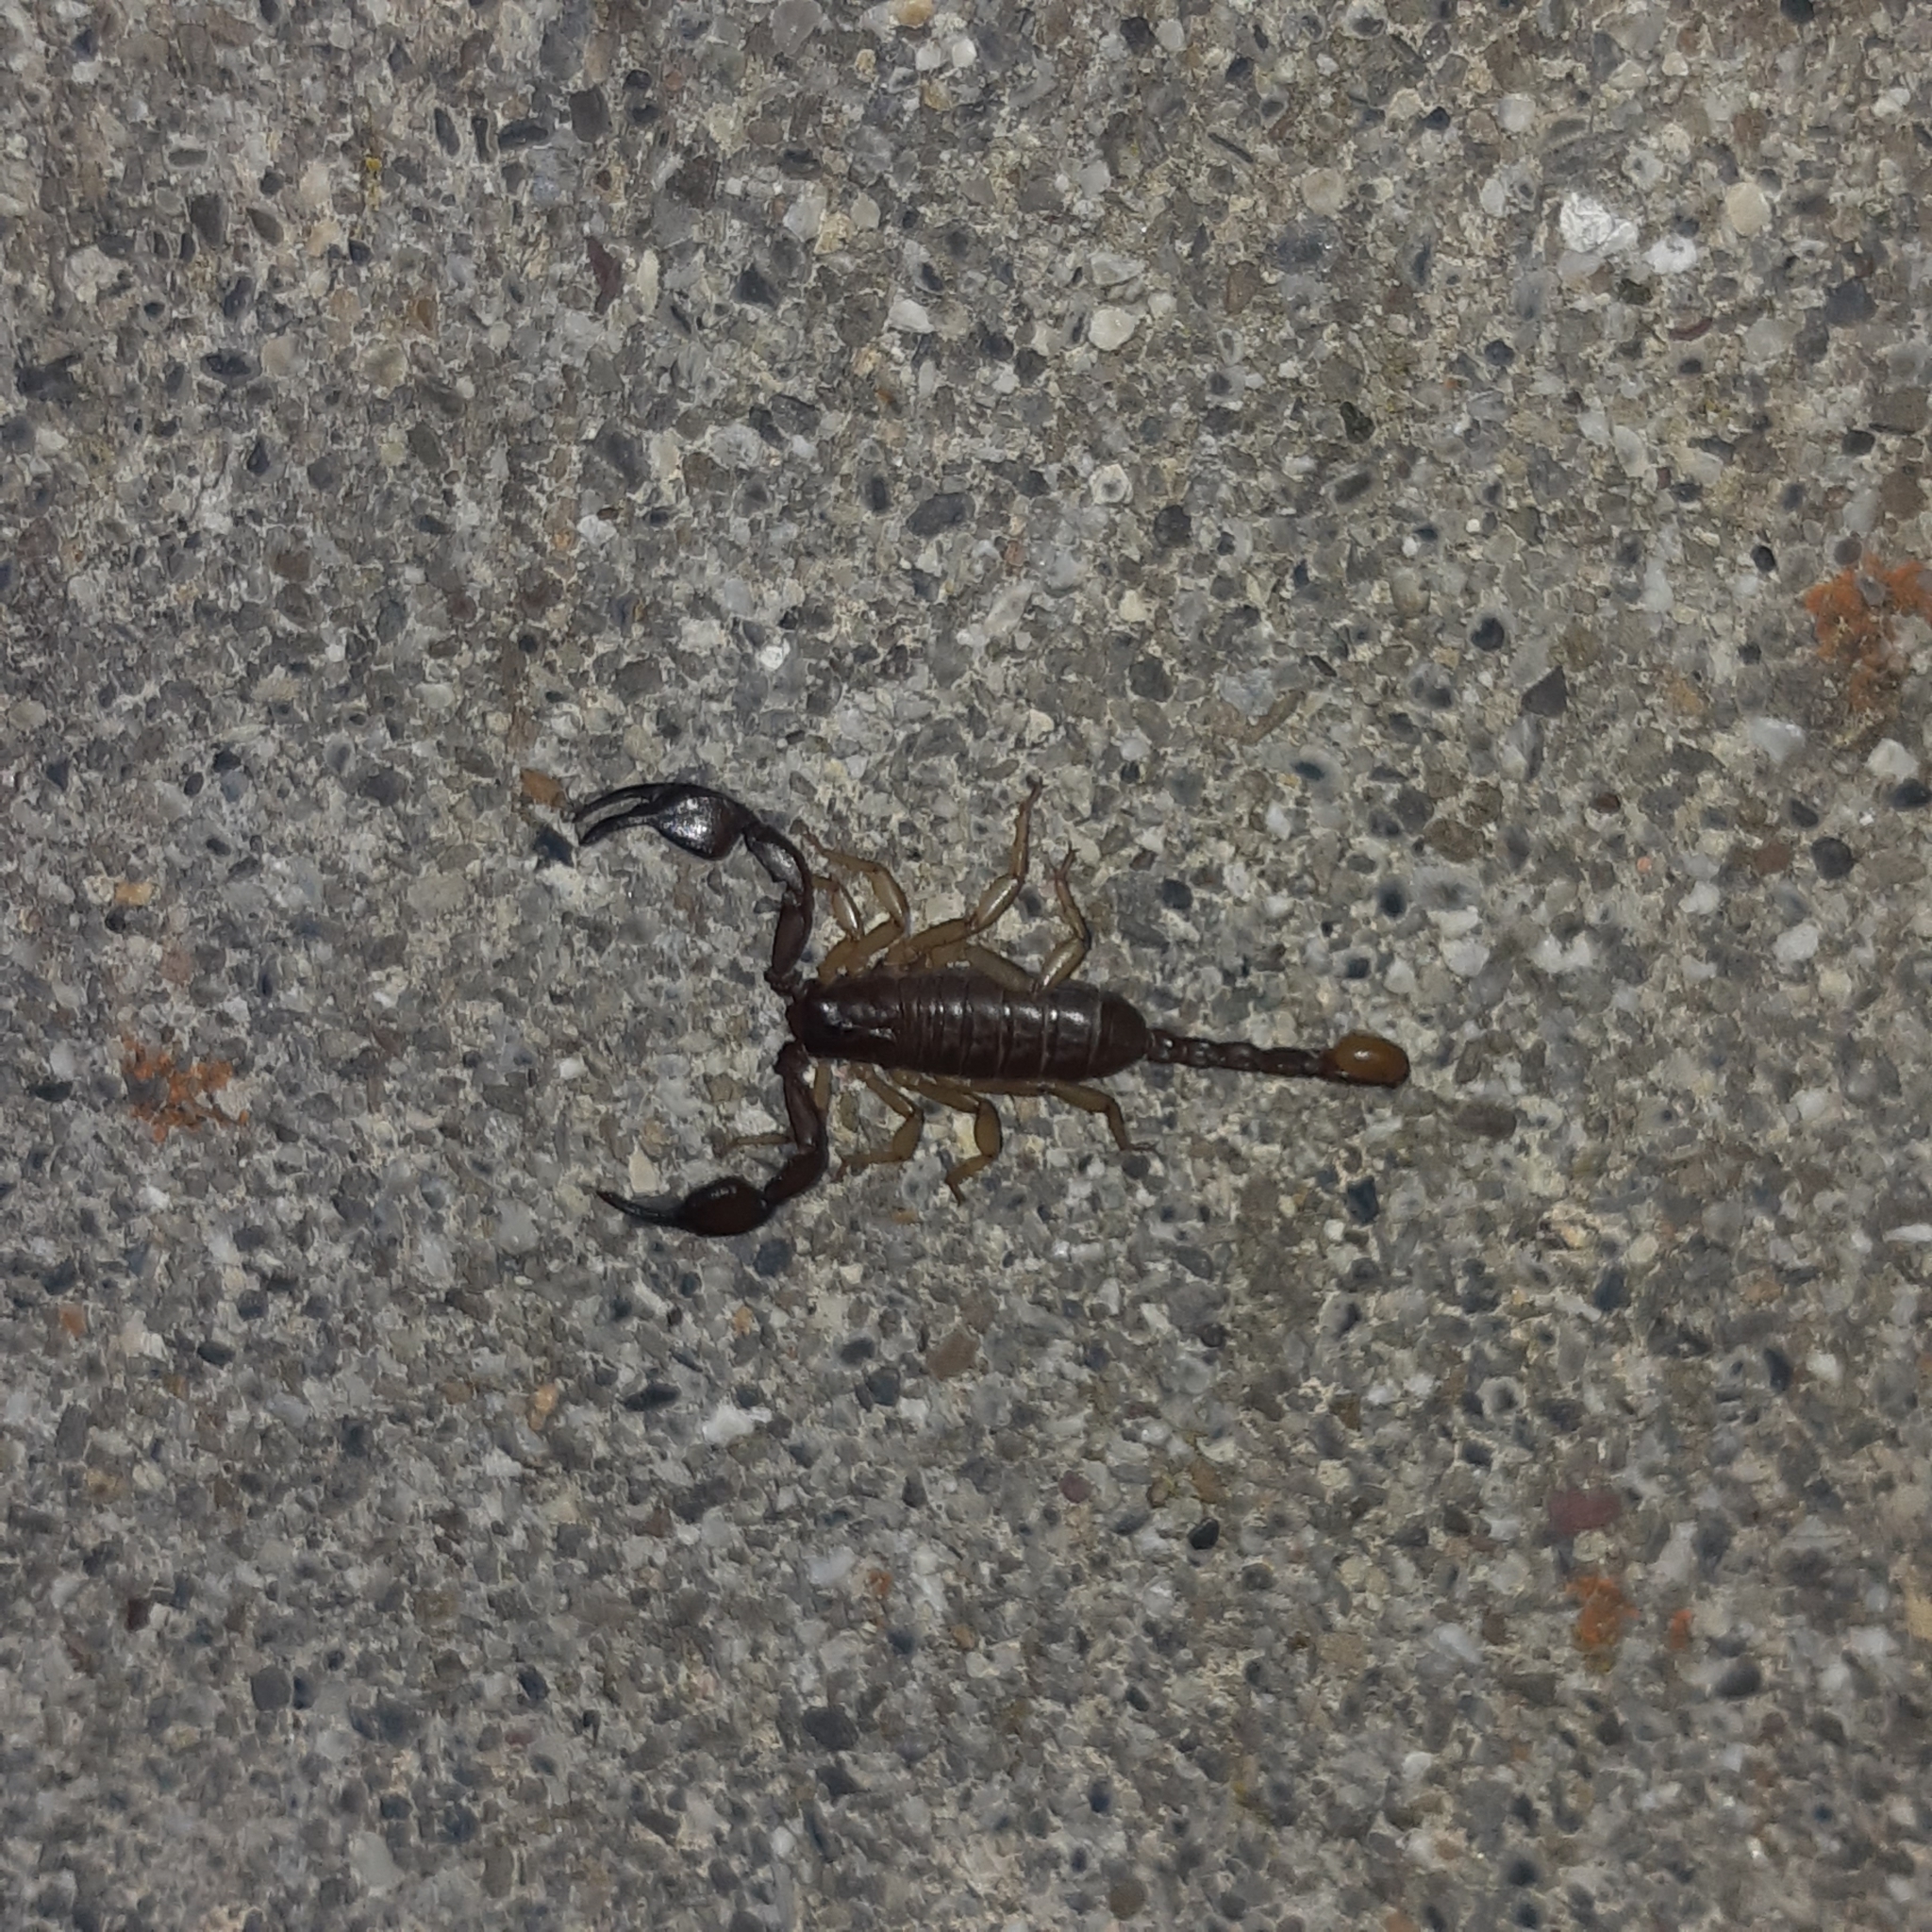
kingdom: Animalia
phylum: Arthropoda
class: Arachnida
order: Scorpiones
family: Euscorpiidae
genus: Euscorpius
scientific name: Euscorpius
